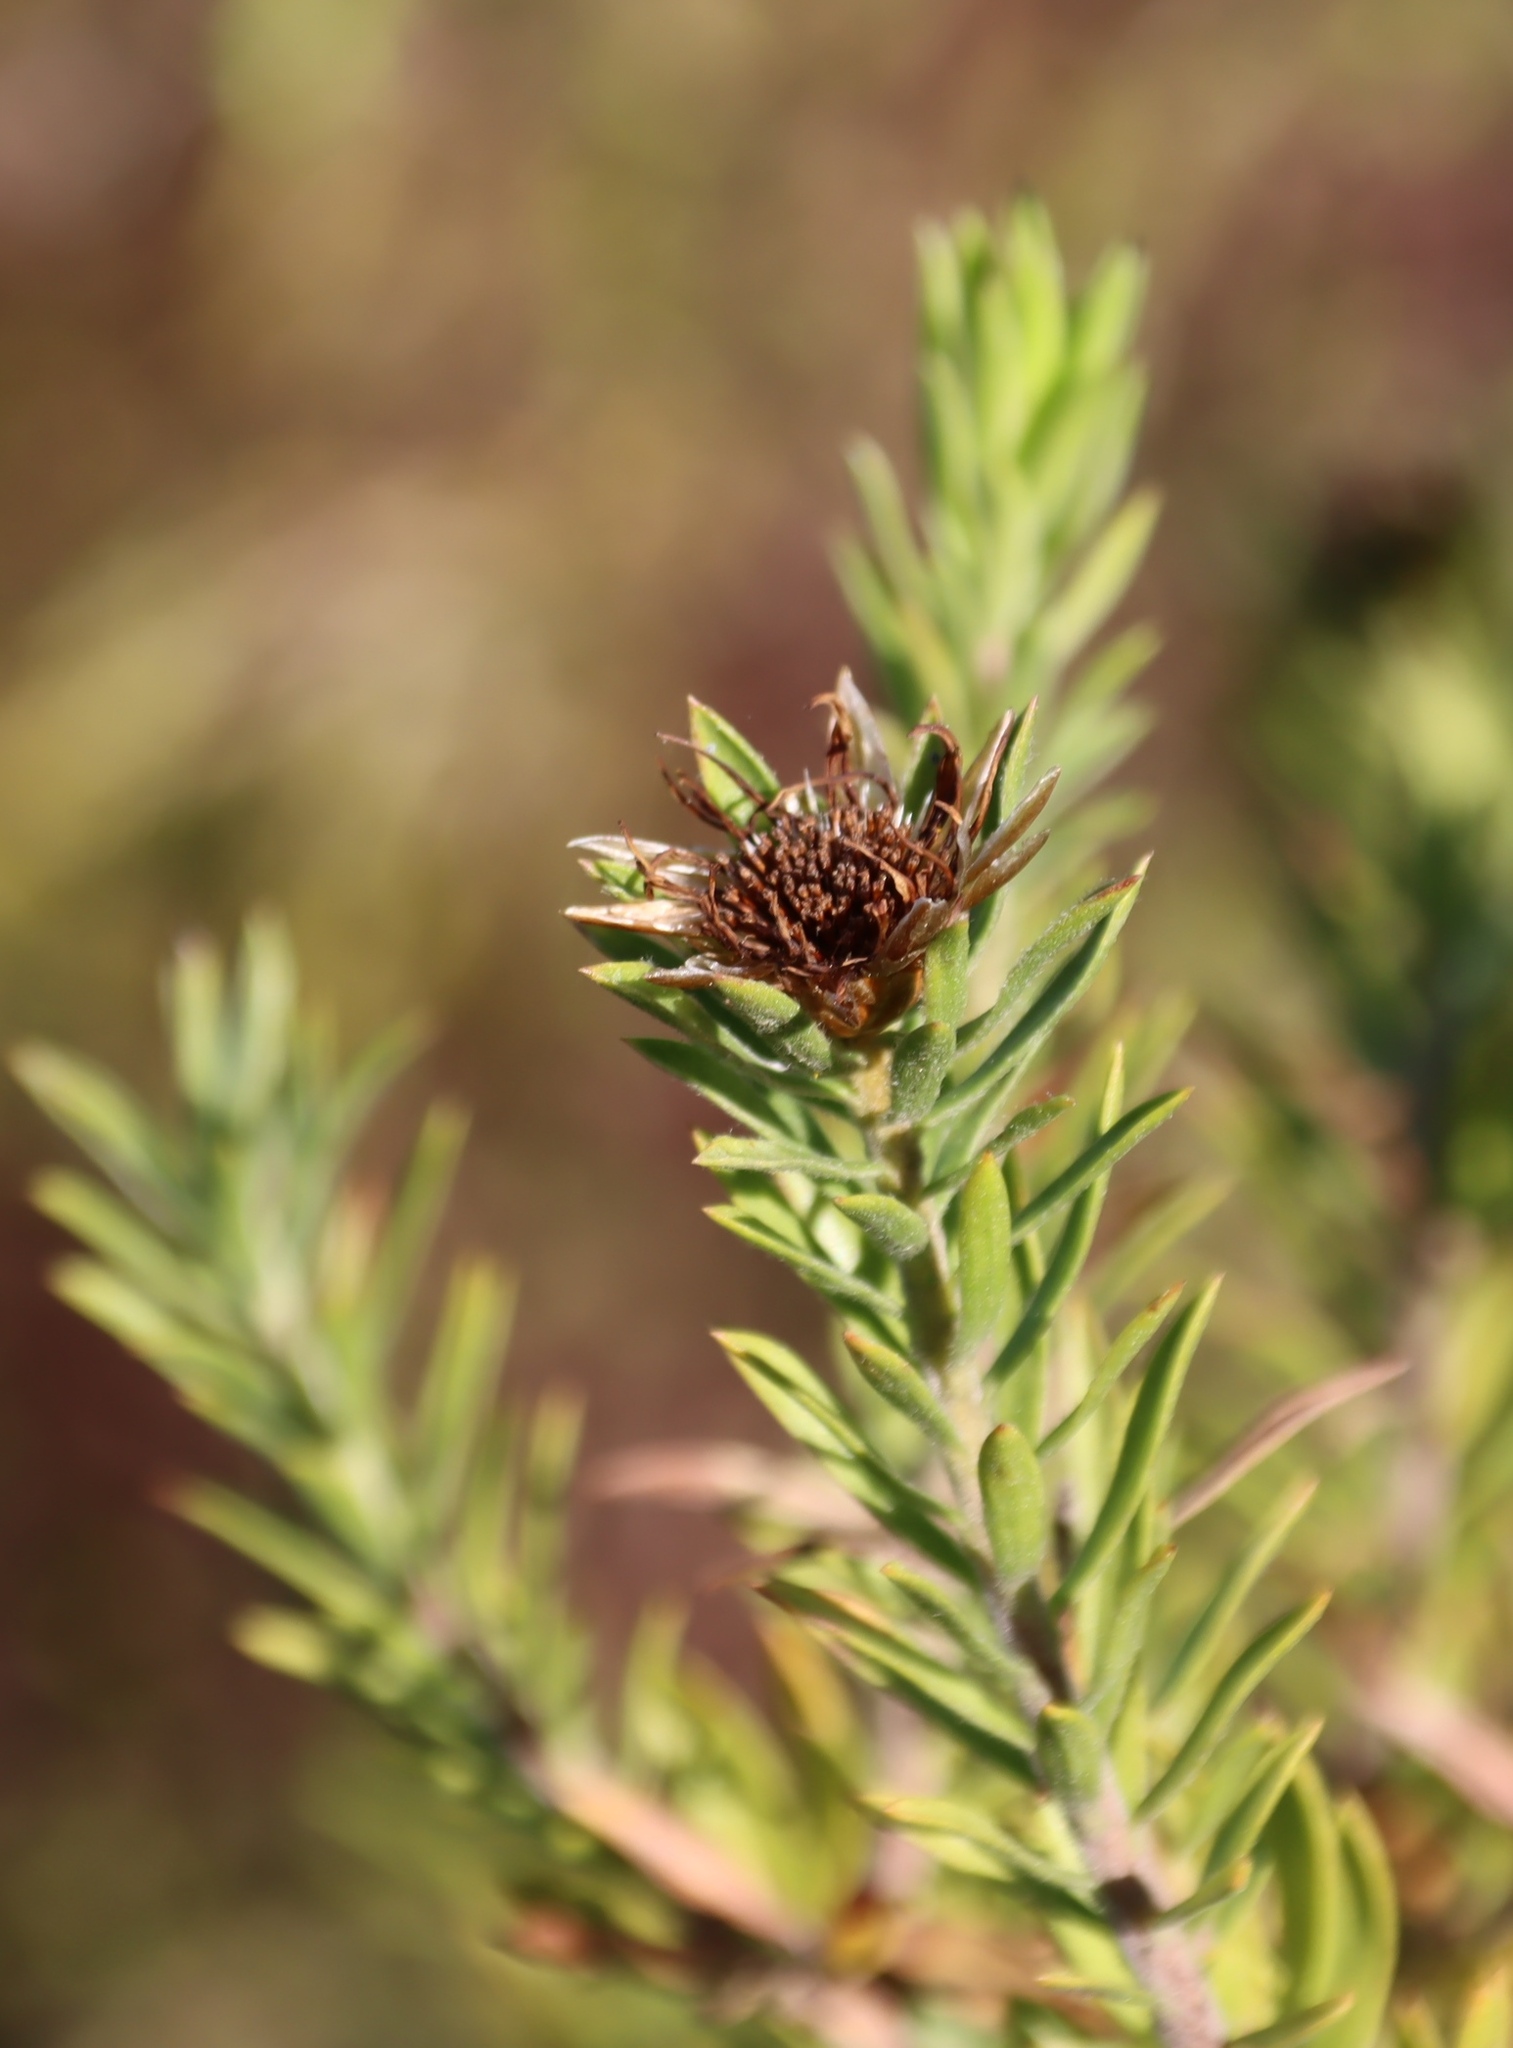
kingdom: Plantae
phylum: Tracheophyta
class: Magnoliopsida
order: Asterales
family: Asteraceae
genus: Oedera
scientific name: Oedera calycina
